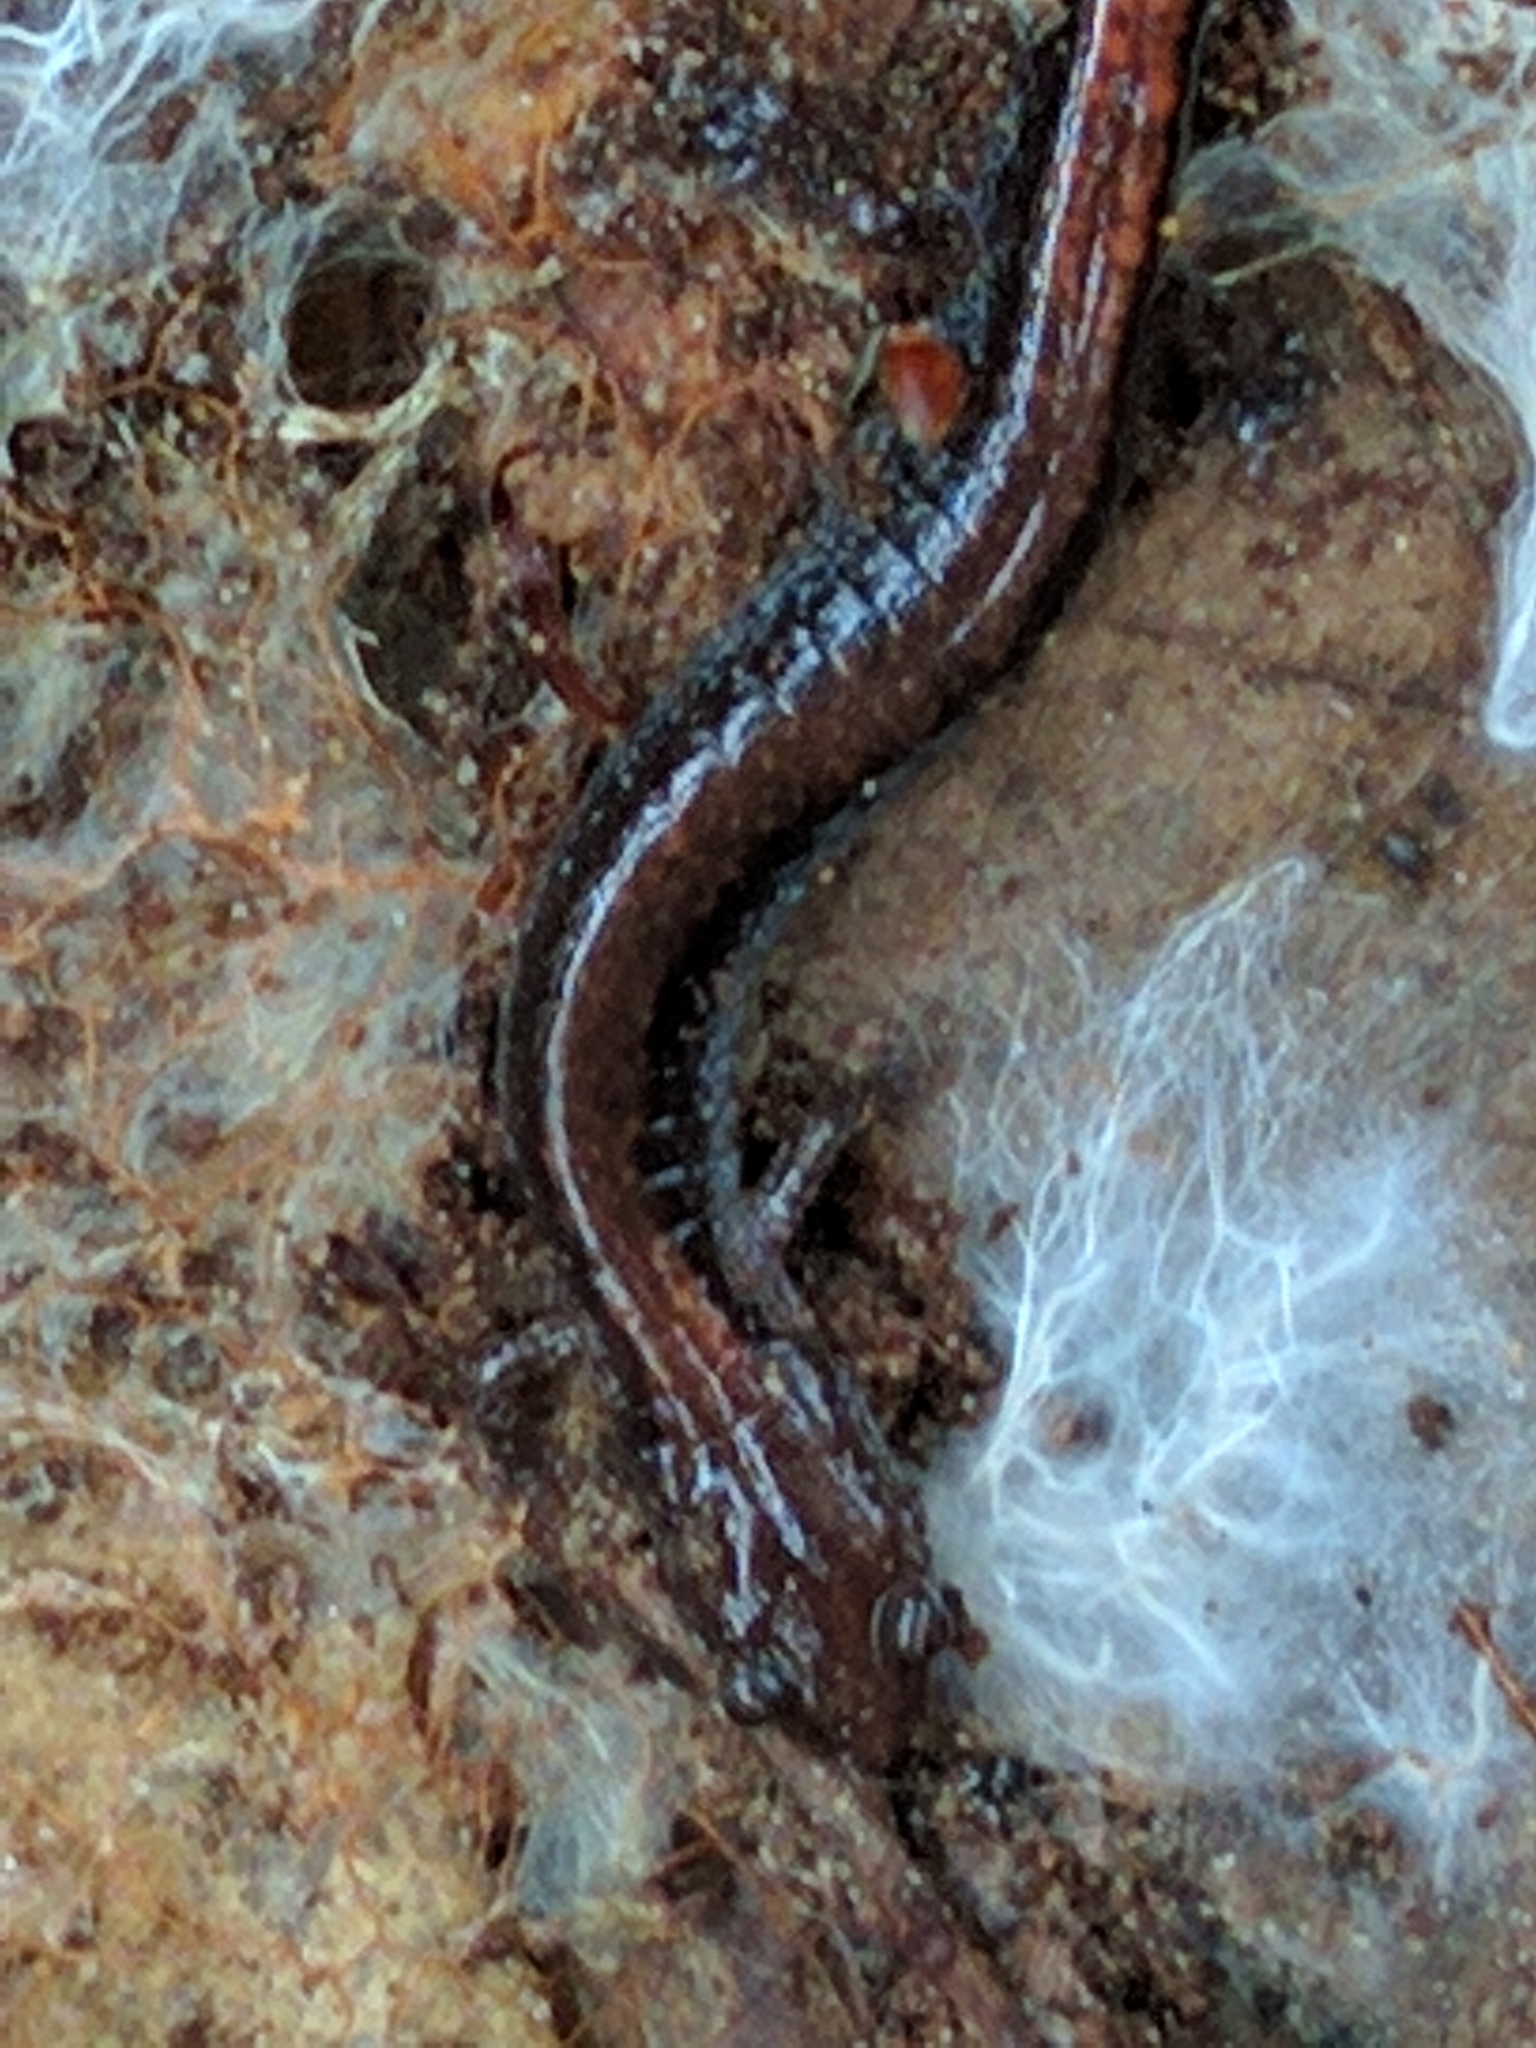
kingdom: Animalia
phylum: Chordata
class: Amphibia
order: Caudata
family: Plethodontidae
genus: Plethodon
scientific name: Plethodon cinereus
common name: Redback salamander
